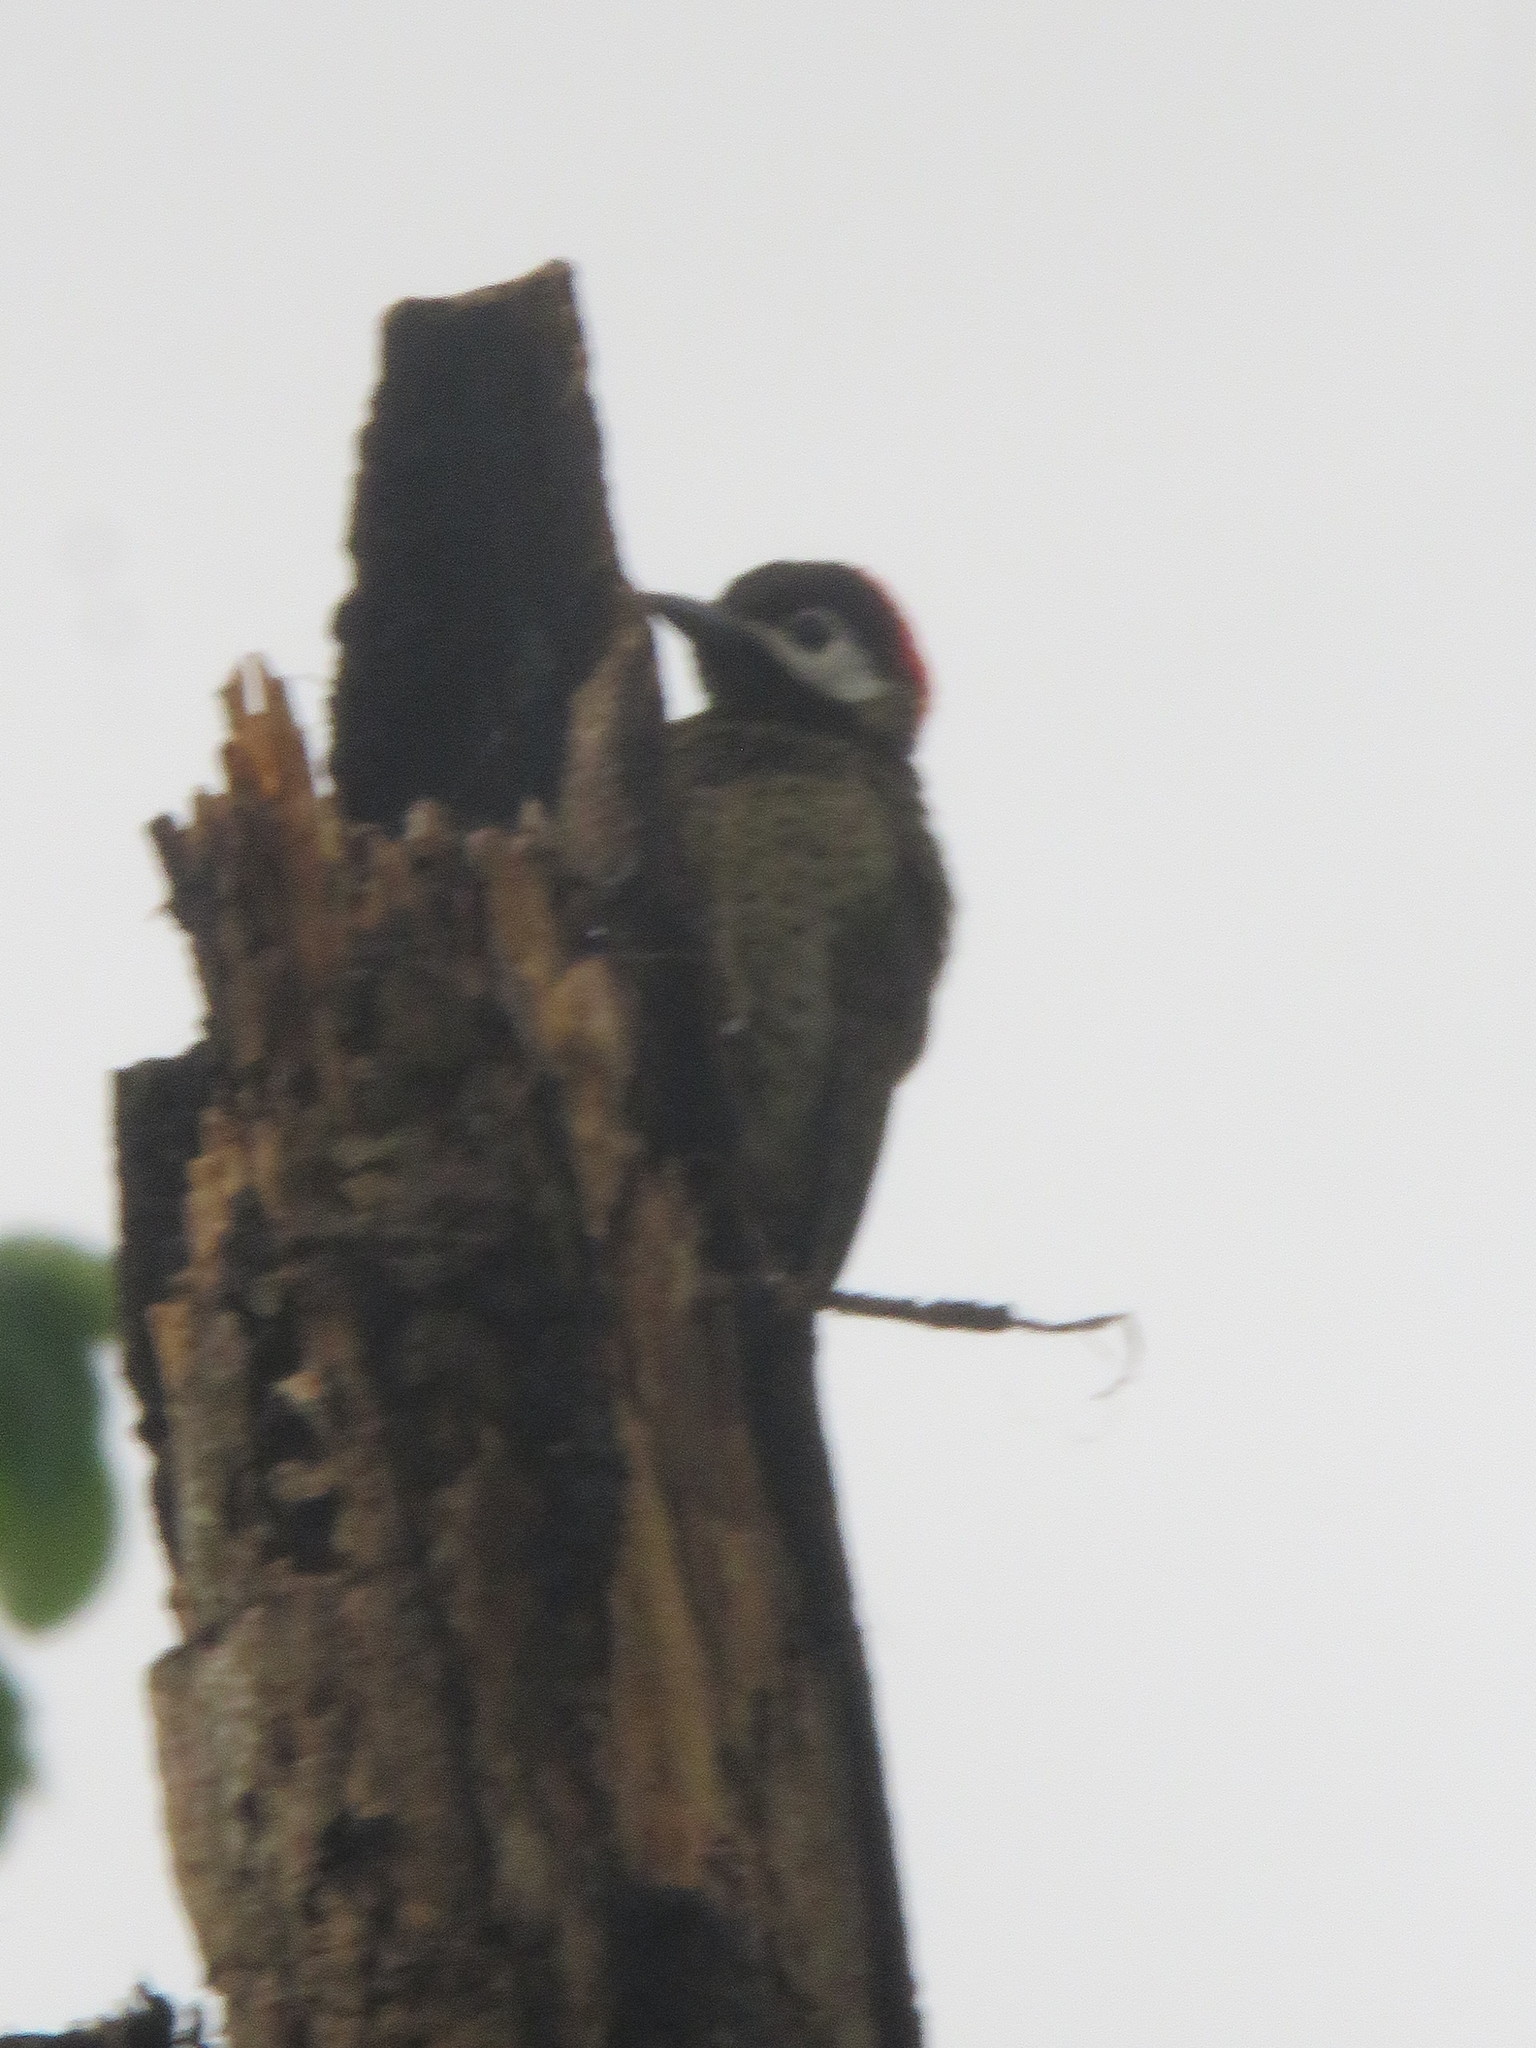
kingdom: Animalia
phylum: Chordata
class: Aves
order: Piciformes
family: Picidae
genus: Colaptes
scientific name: Colaptes punctigula
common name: Spot-breasted woodpecker
